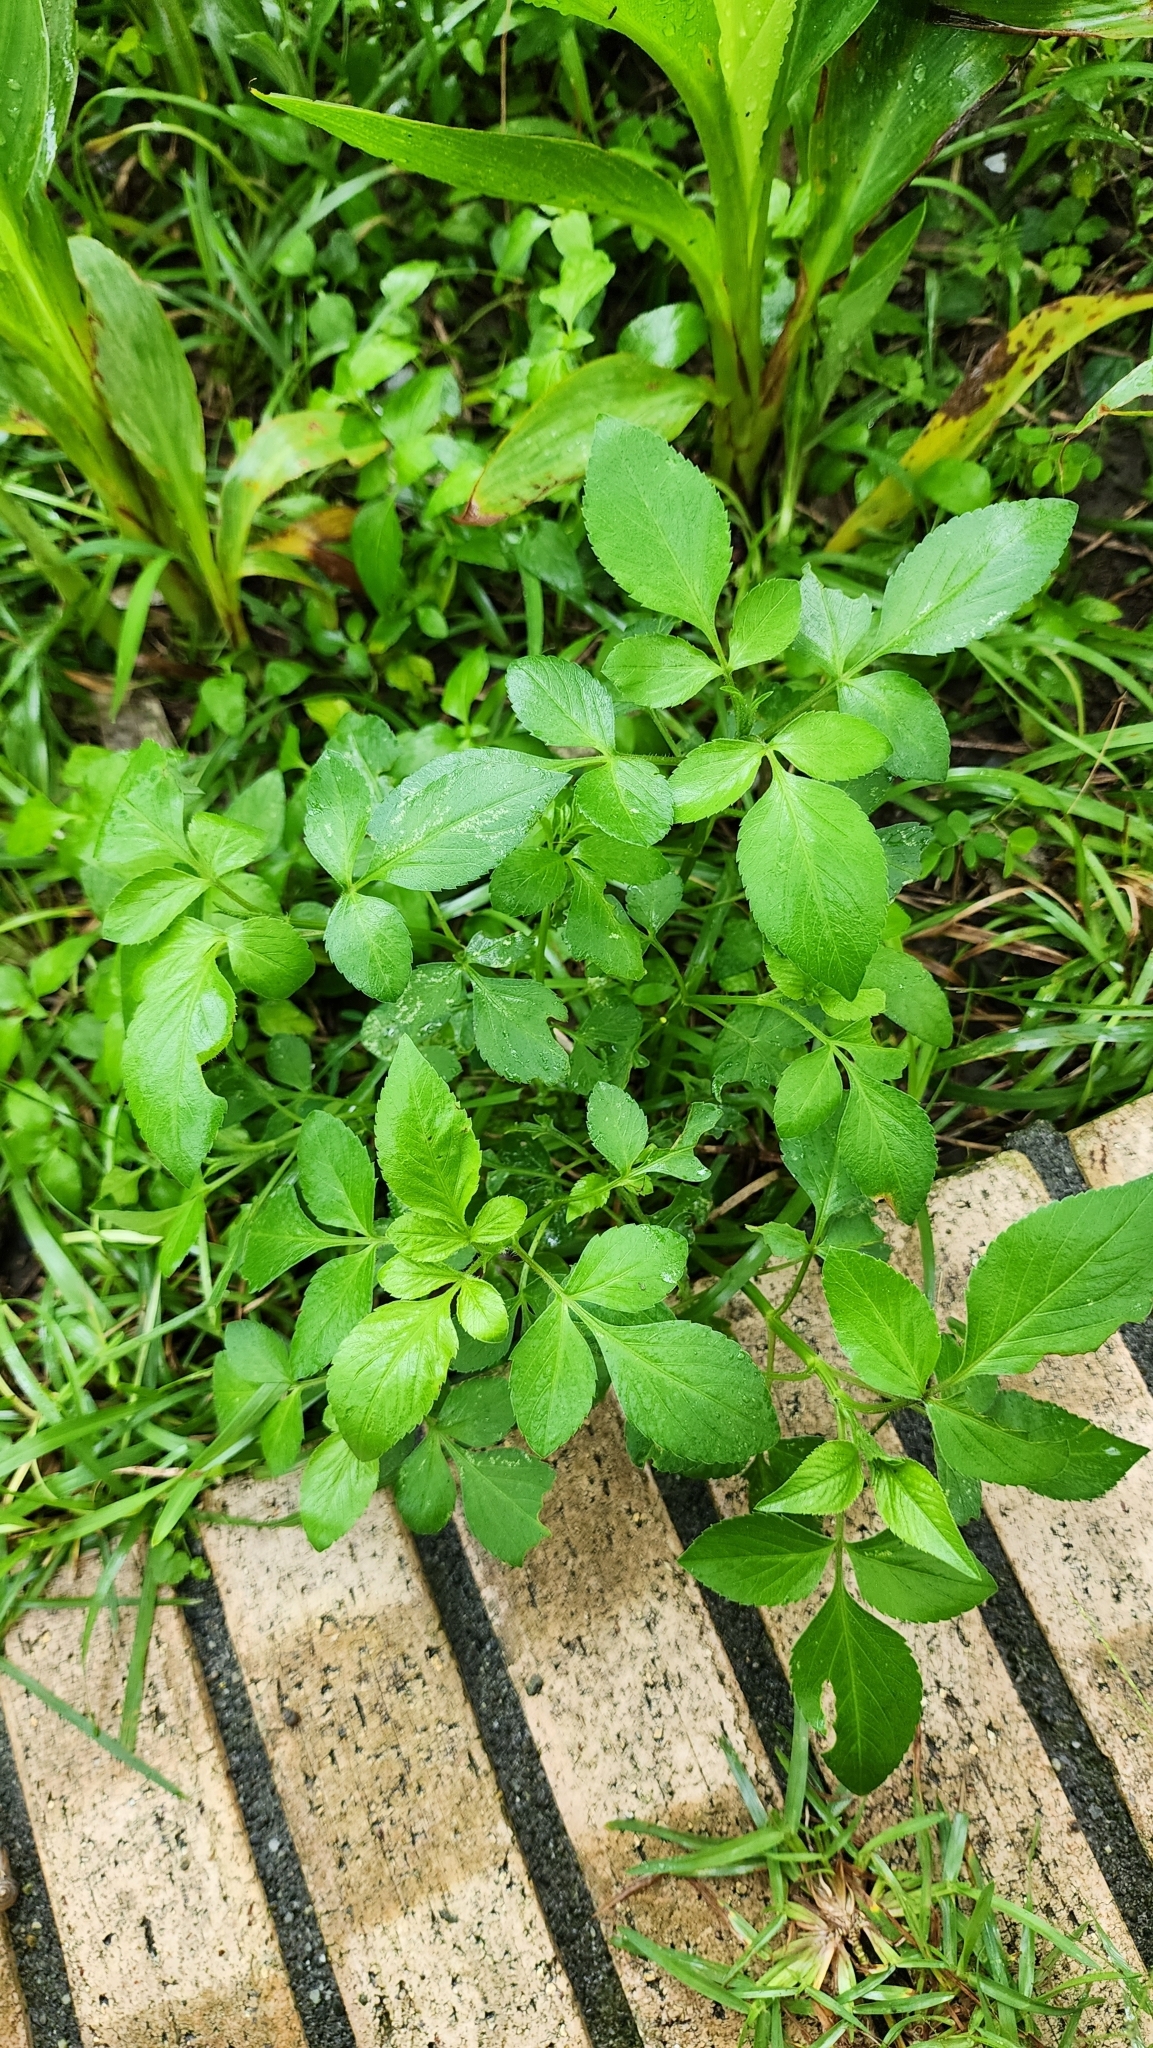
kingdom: Plantae
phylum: Tracheophyta
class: Magnoliopsida
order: Asterales
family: Asteraceae
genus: Bidens
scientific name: Bidens alba
